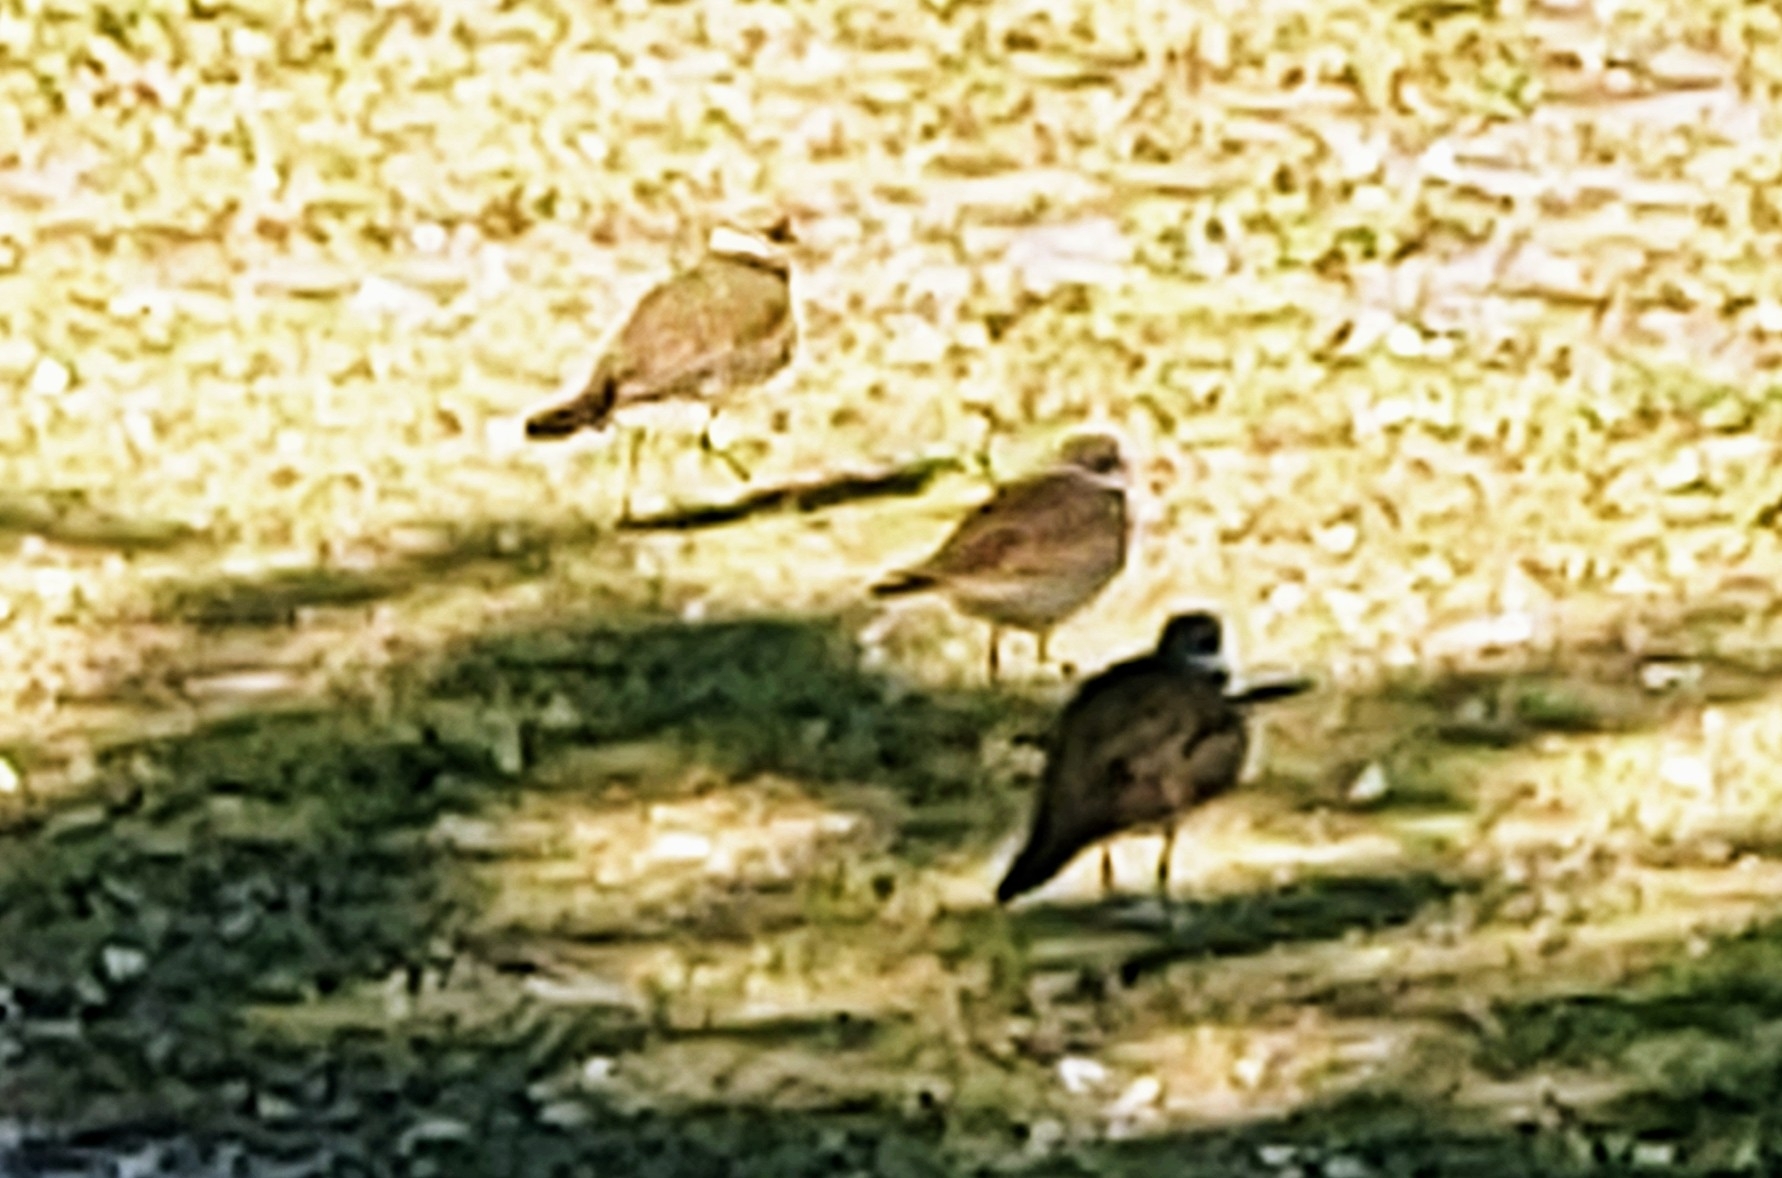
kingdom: Animalia
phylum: Chordata
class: Aves
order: Charadriiformes
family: Charadriidae
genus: Charadrius
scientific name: Charadrius vociferus
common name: Killdeer
